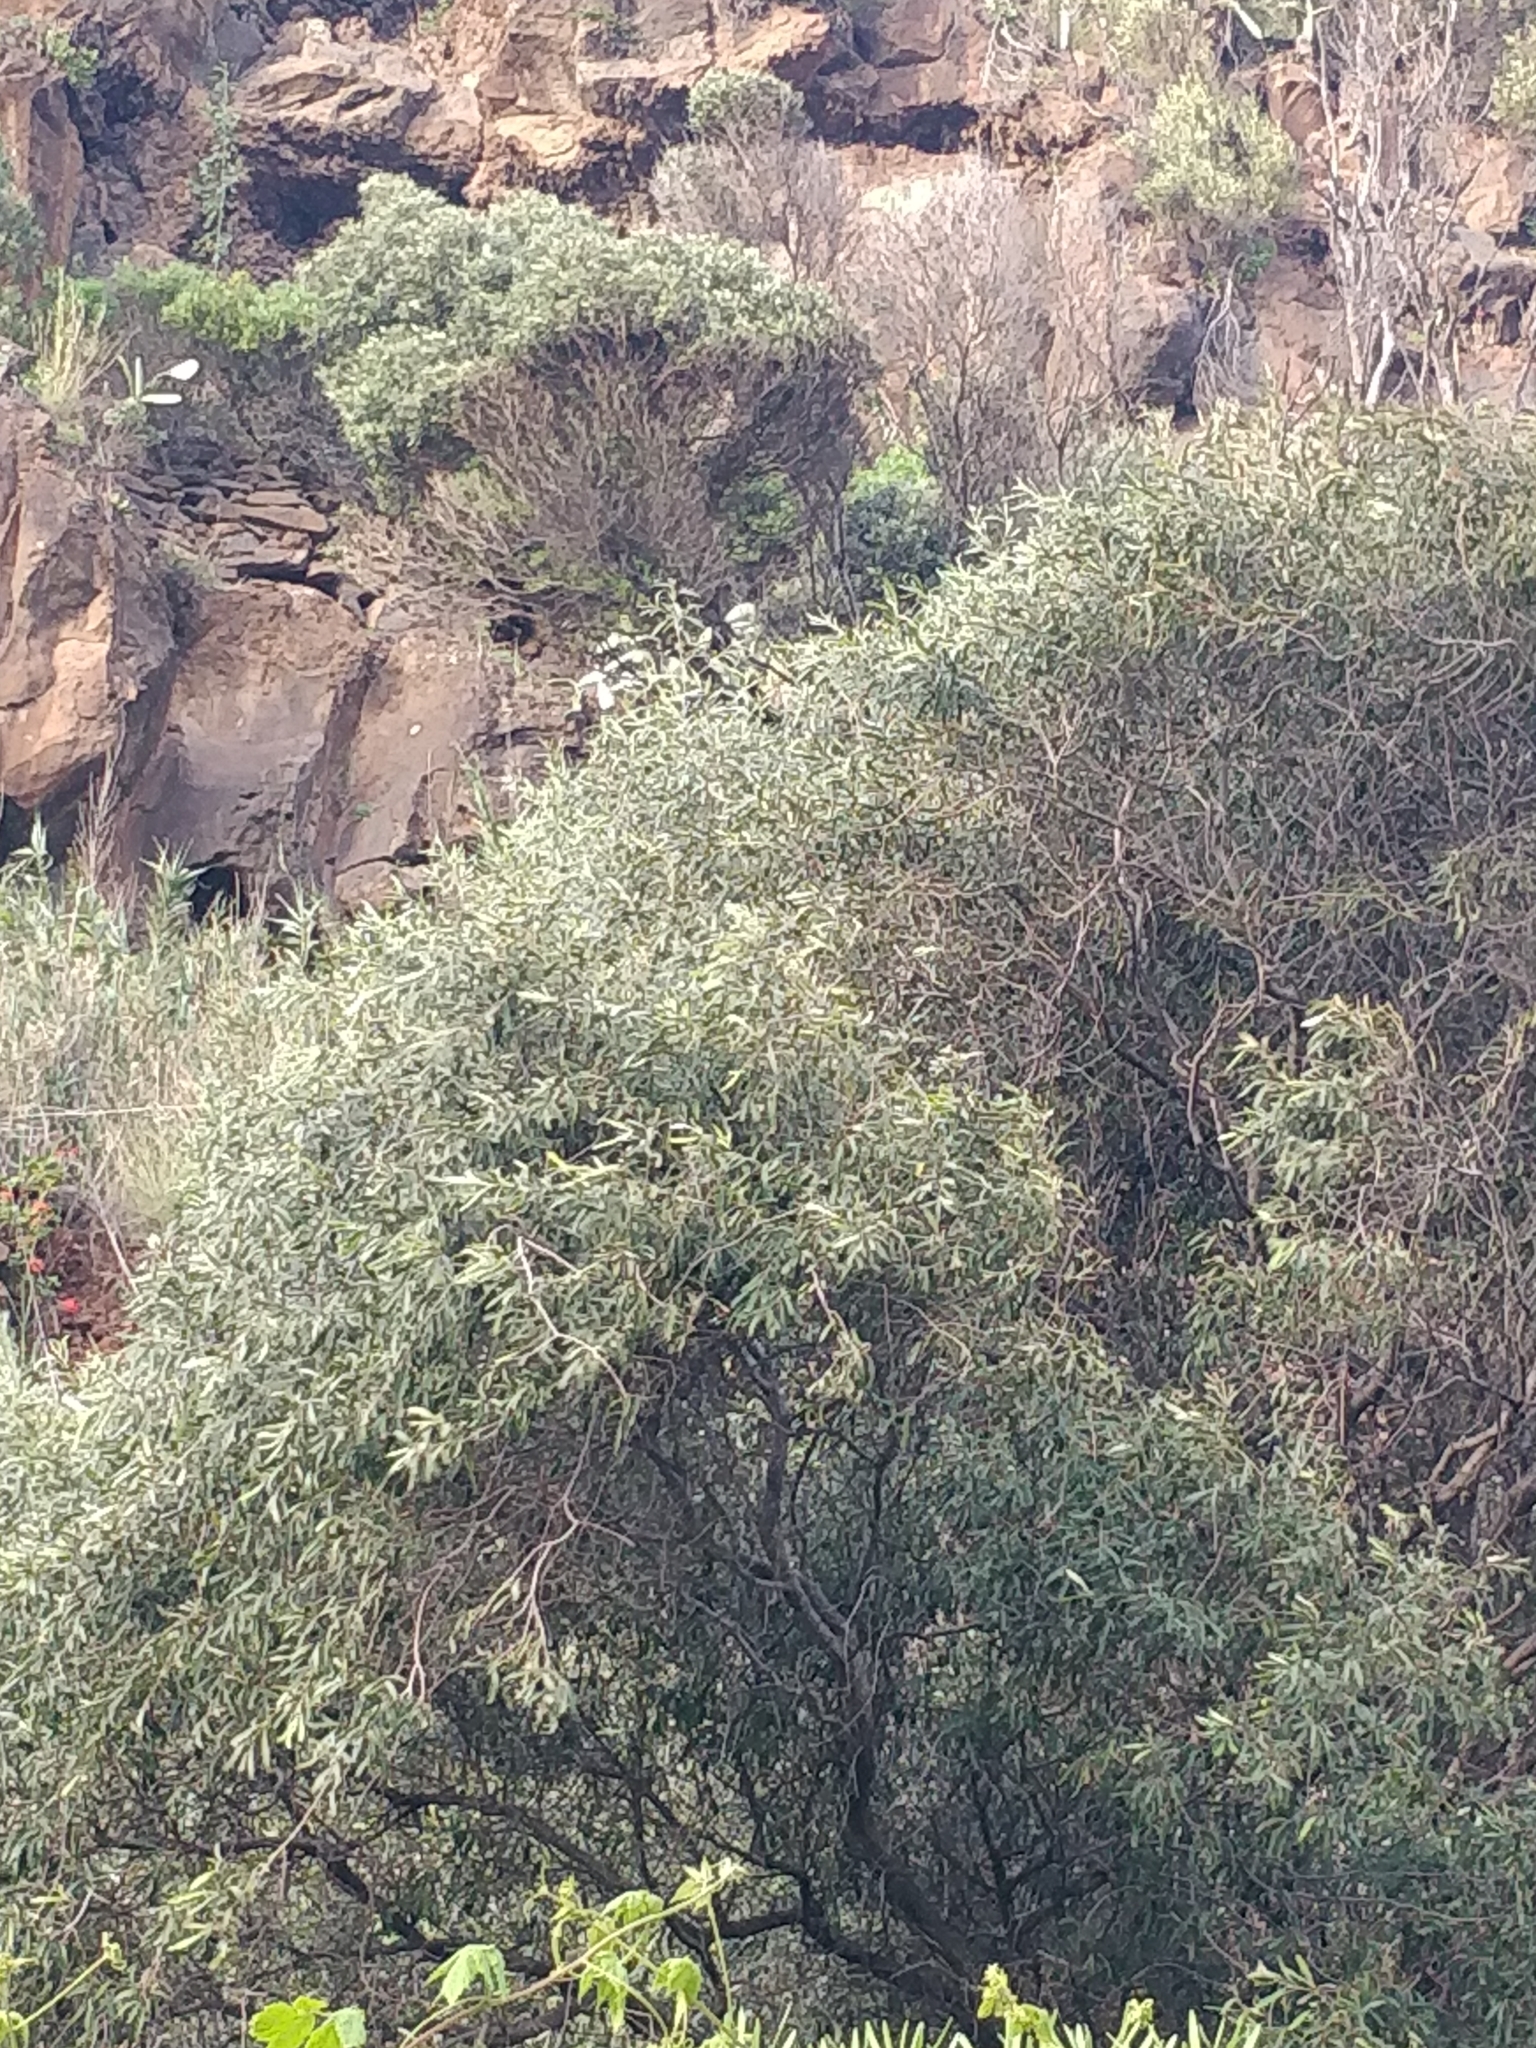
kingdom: Plantae
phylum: Tracheophyta
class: Magnoliopsida
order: Lamiales
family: Oleaceae
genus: Olea
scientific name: Olea europaea
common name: Olive
